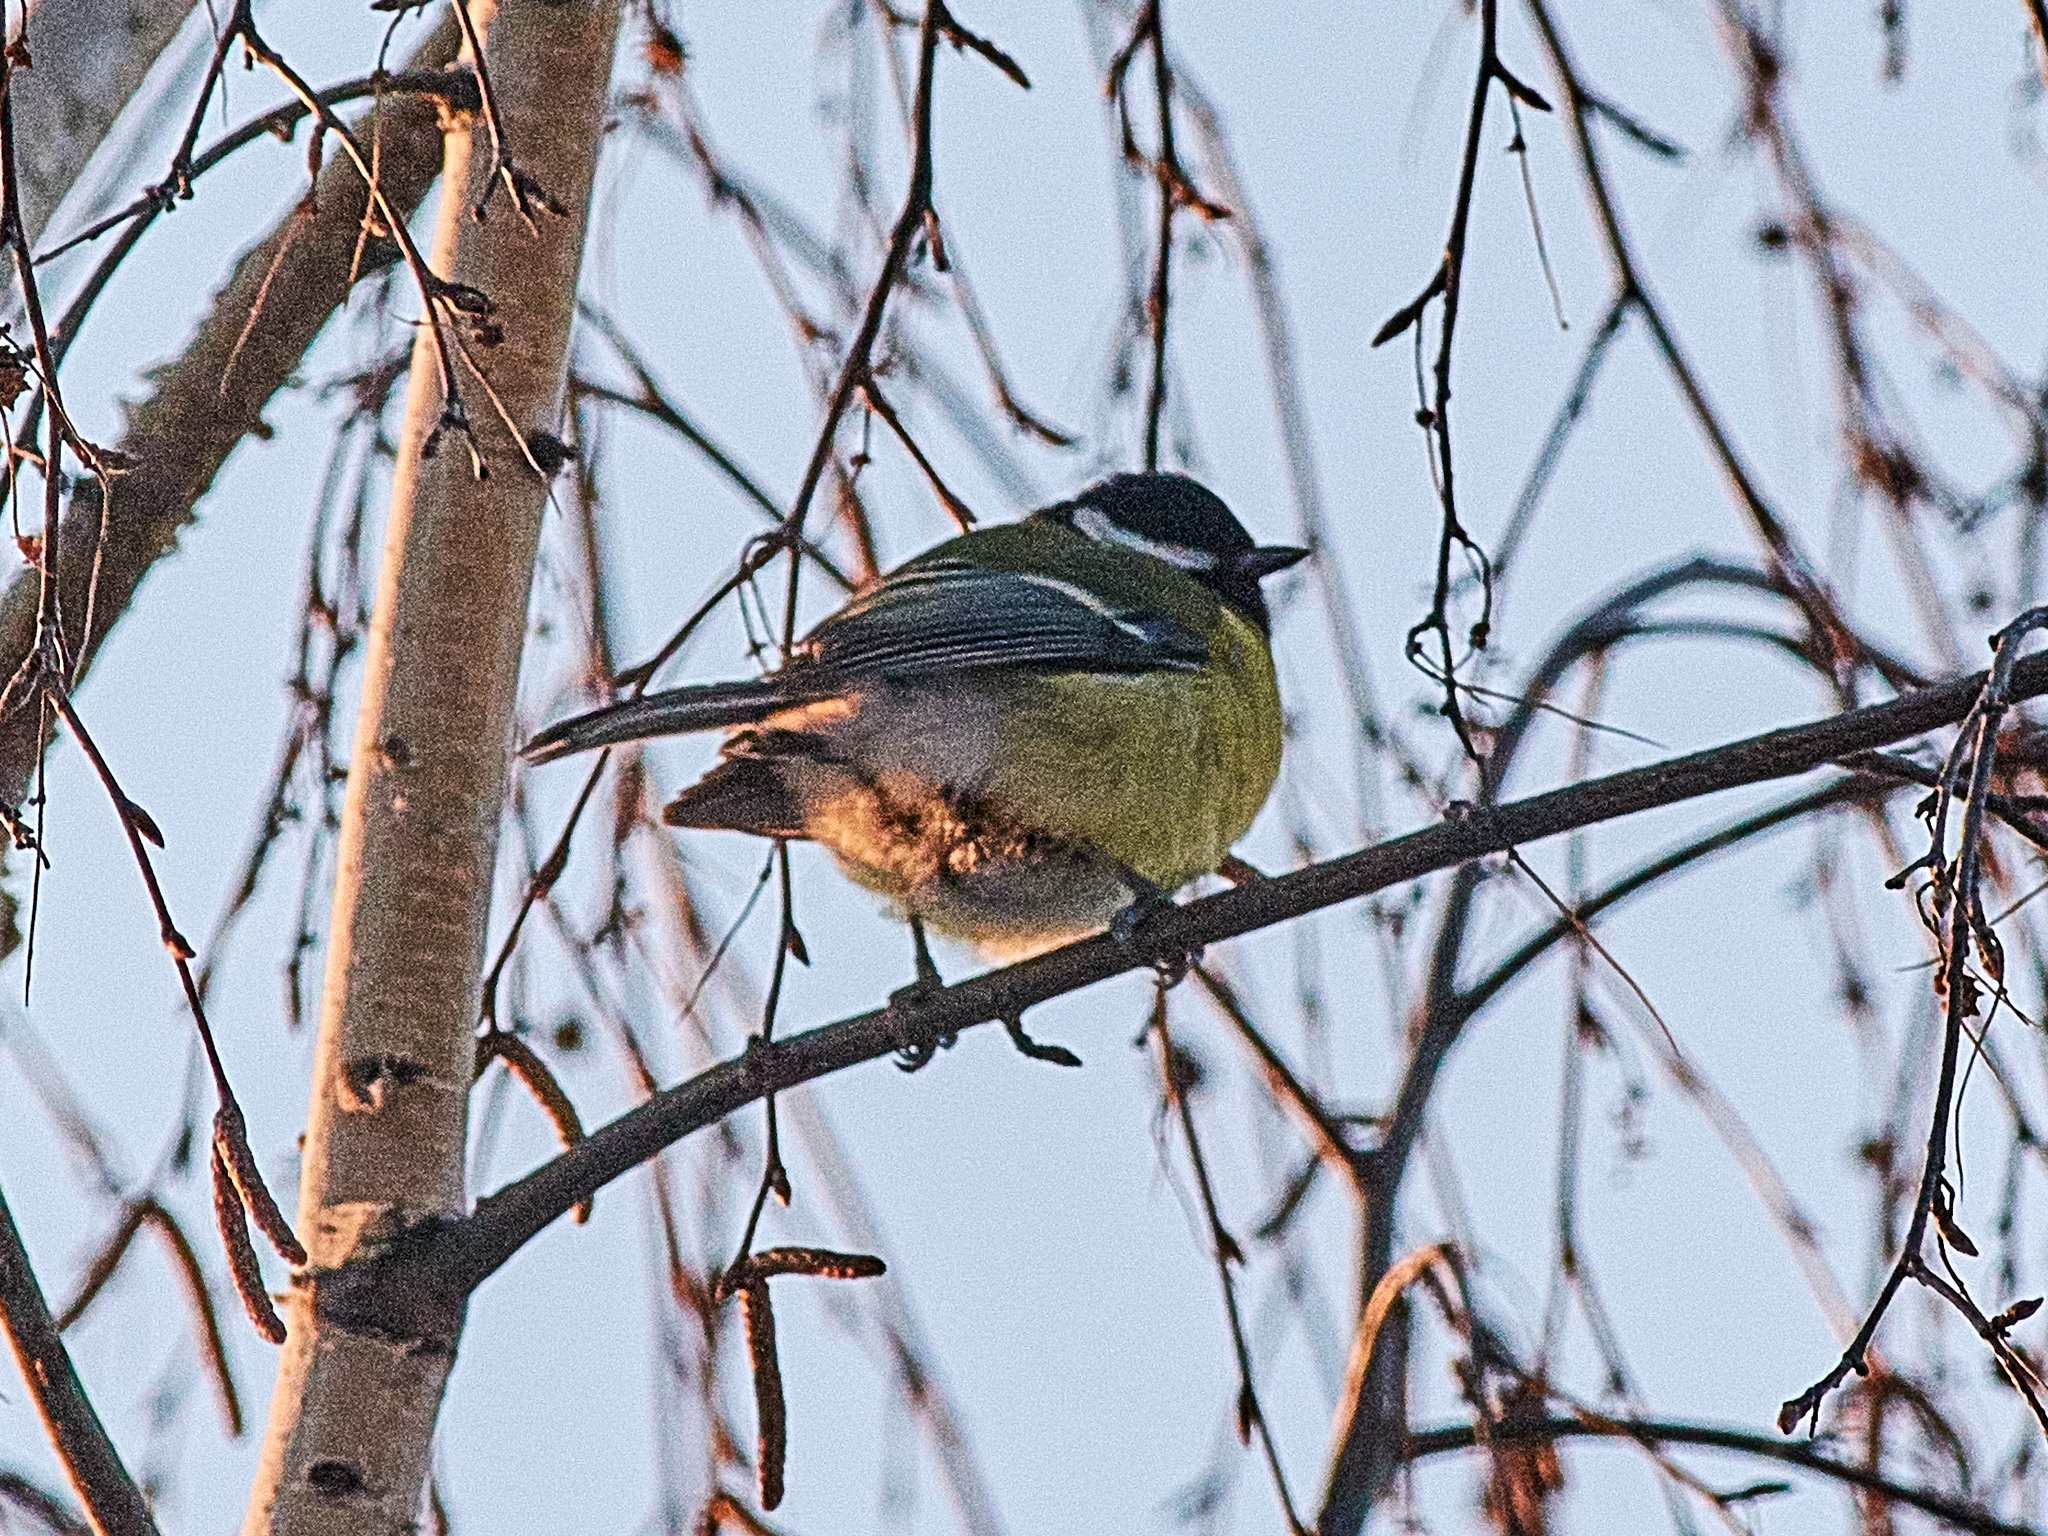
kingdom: Animalia
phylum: Chordata
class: Aves
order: Passeriformes
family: Paridae
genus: Parus
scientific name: Parus major
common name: Great tit
